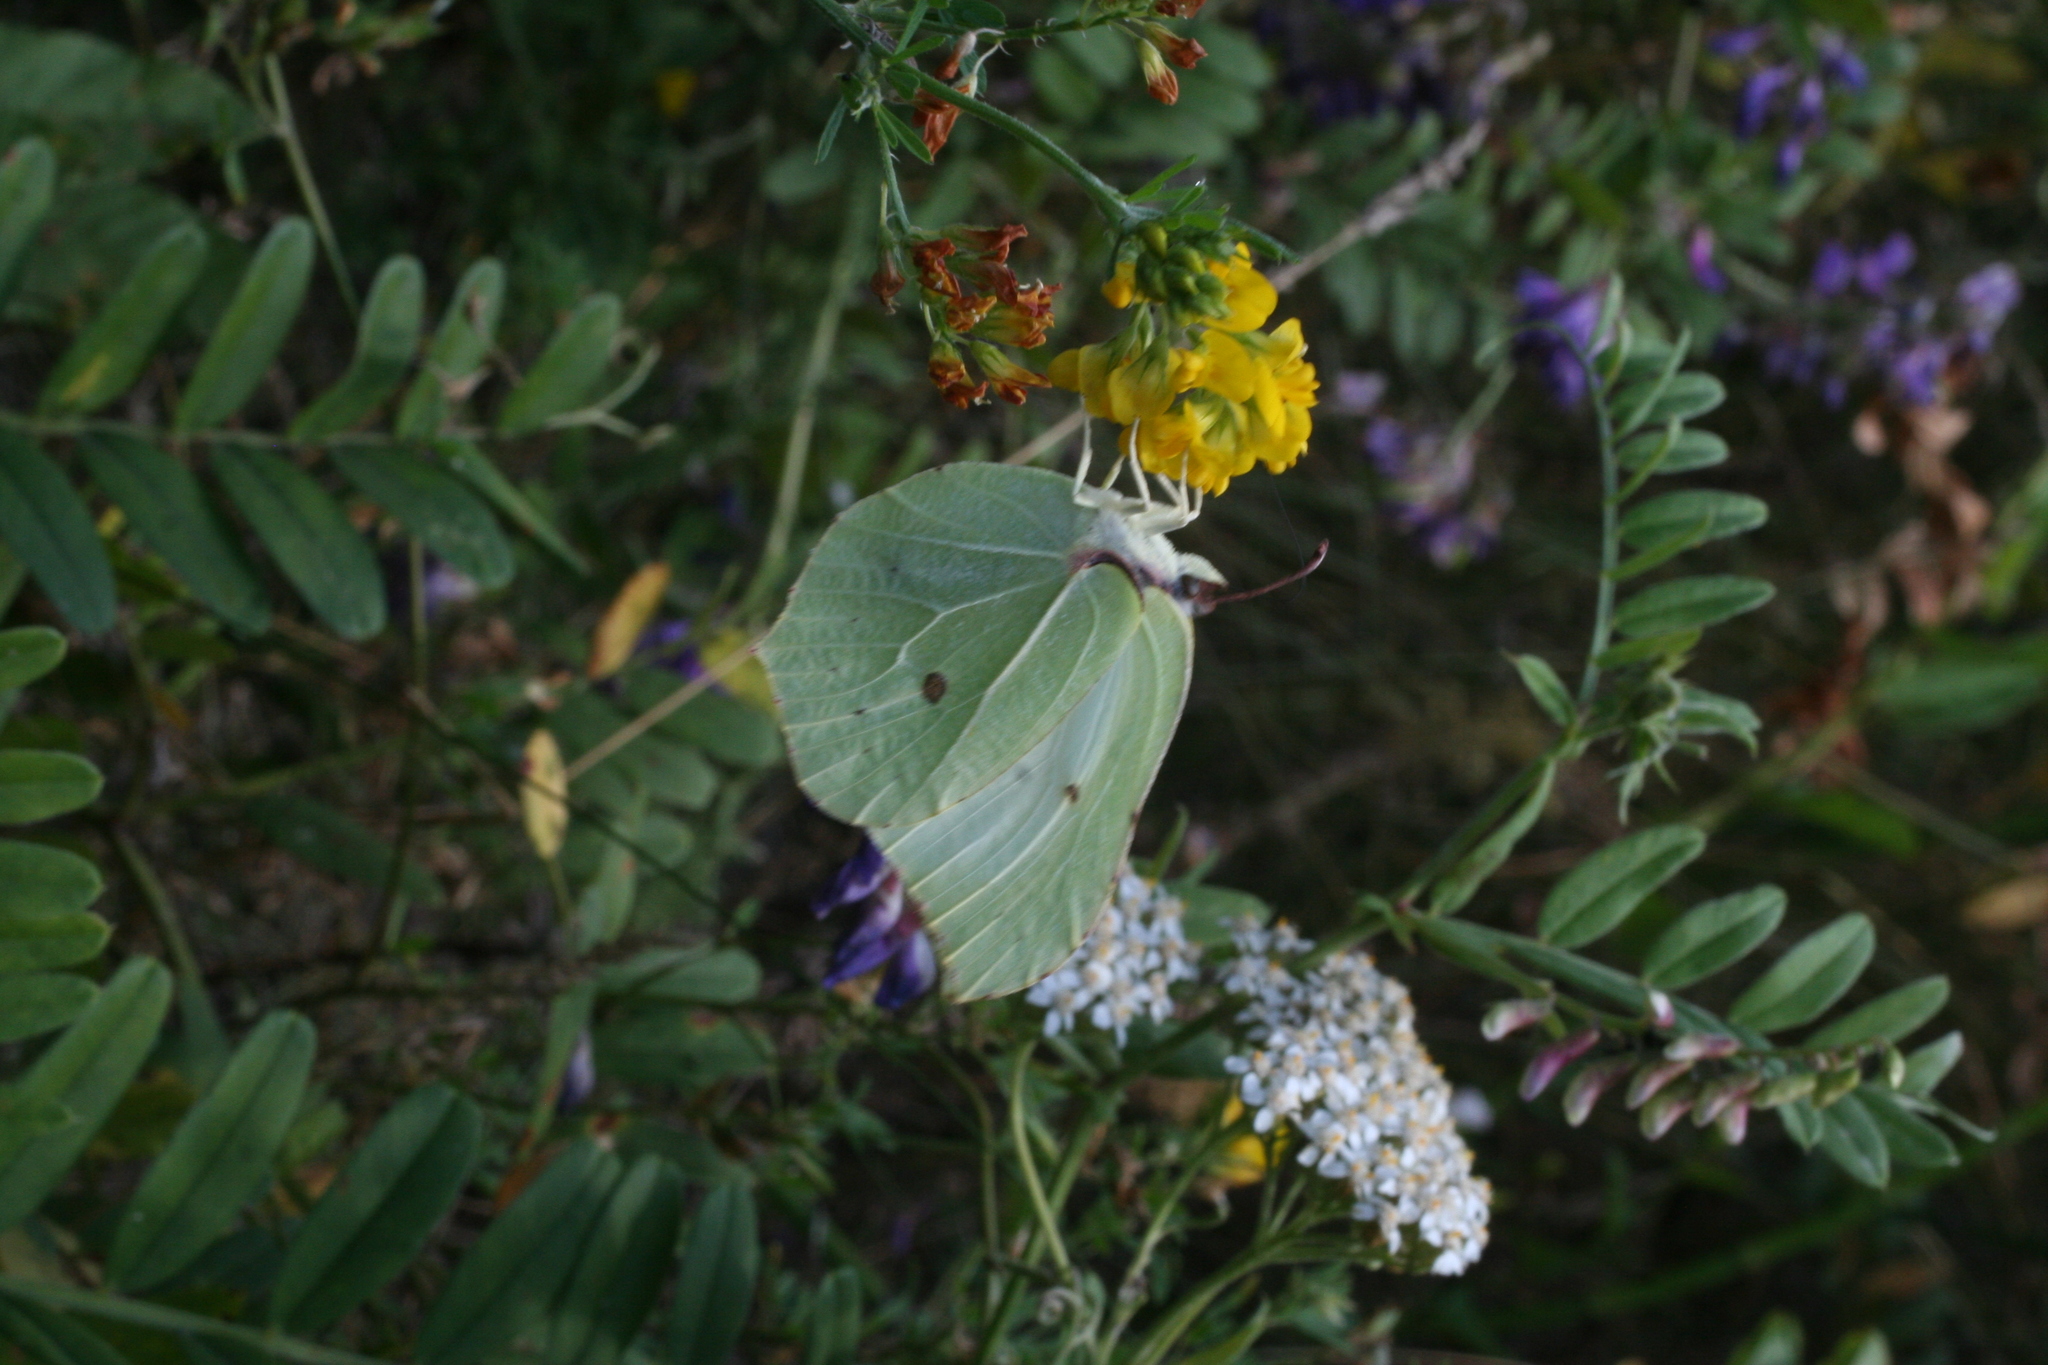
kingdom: Animalia
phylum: Arthropoda
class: Insecta
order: Lepidoptera
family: Pieridae
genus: Gonepteryx
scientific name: Gonepteryx rhamni
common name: Brimstone
